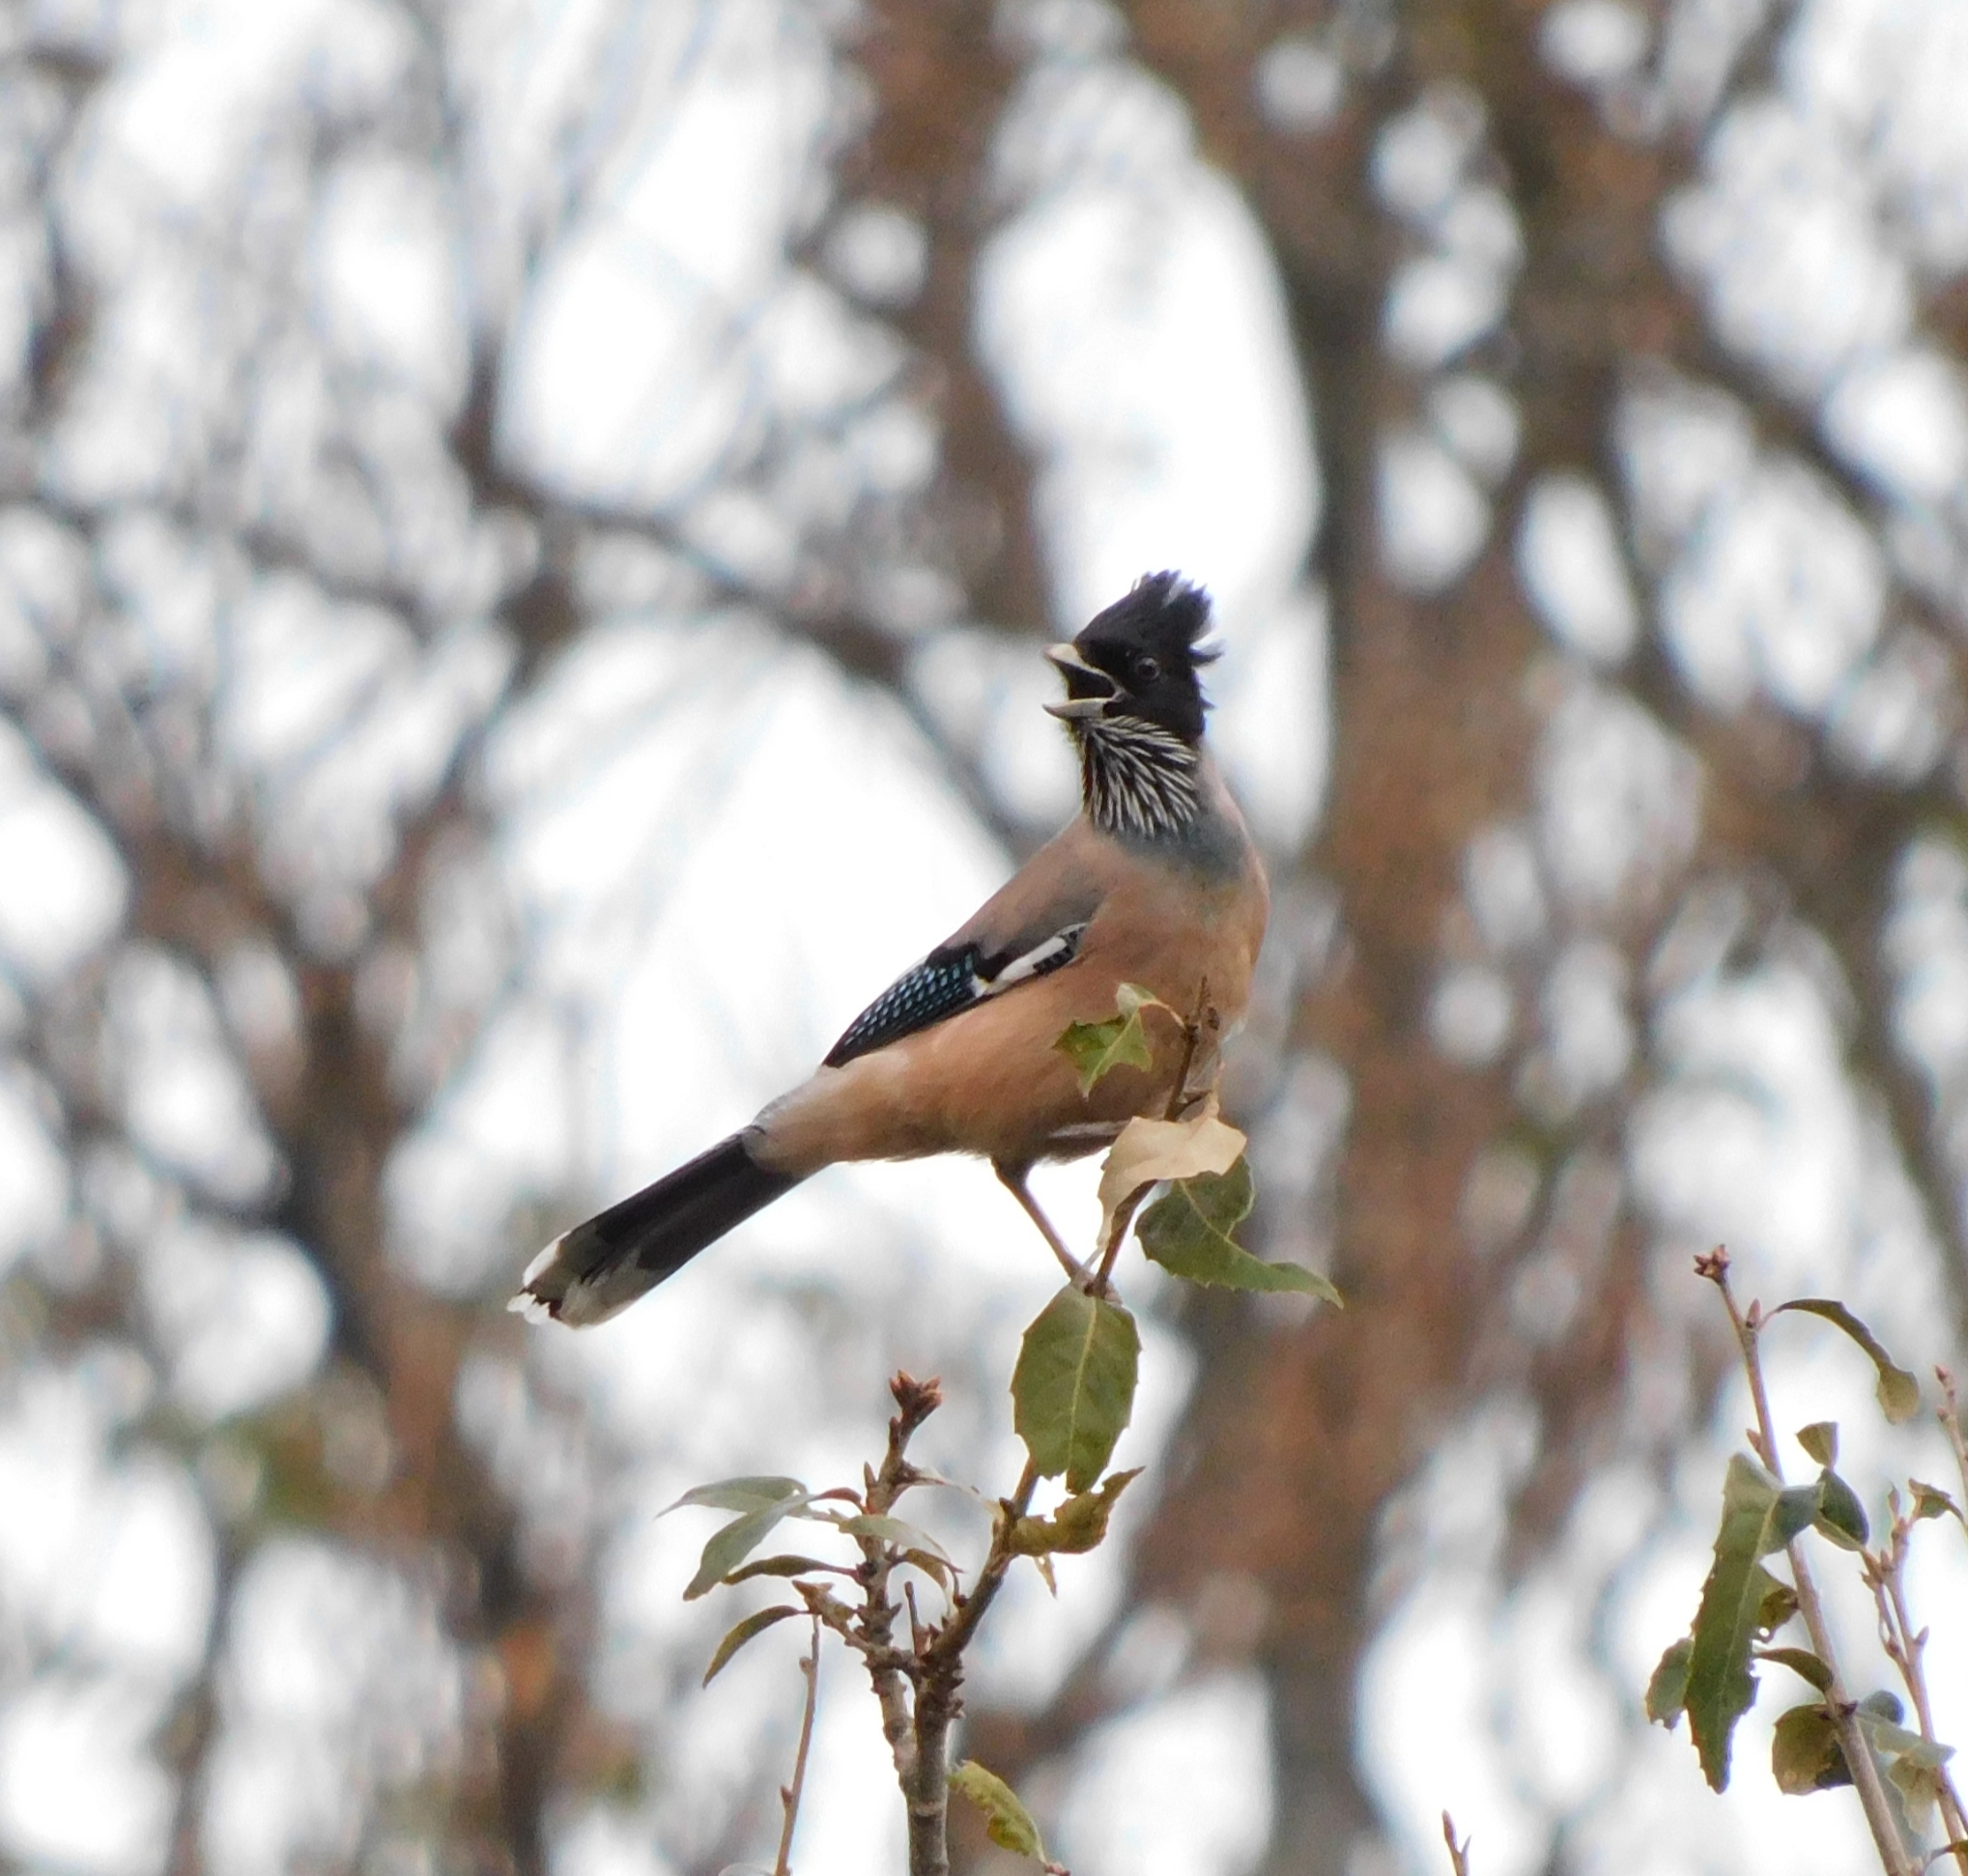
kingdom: Animalia
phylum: Chordata
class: Aves
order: Passeriformes
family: Corvidae
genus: Garrulus
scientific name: Garrulus lanceolatus
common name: Black-headed jay
